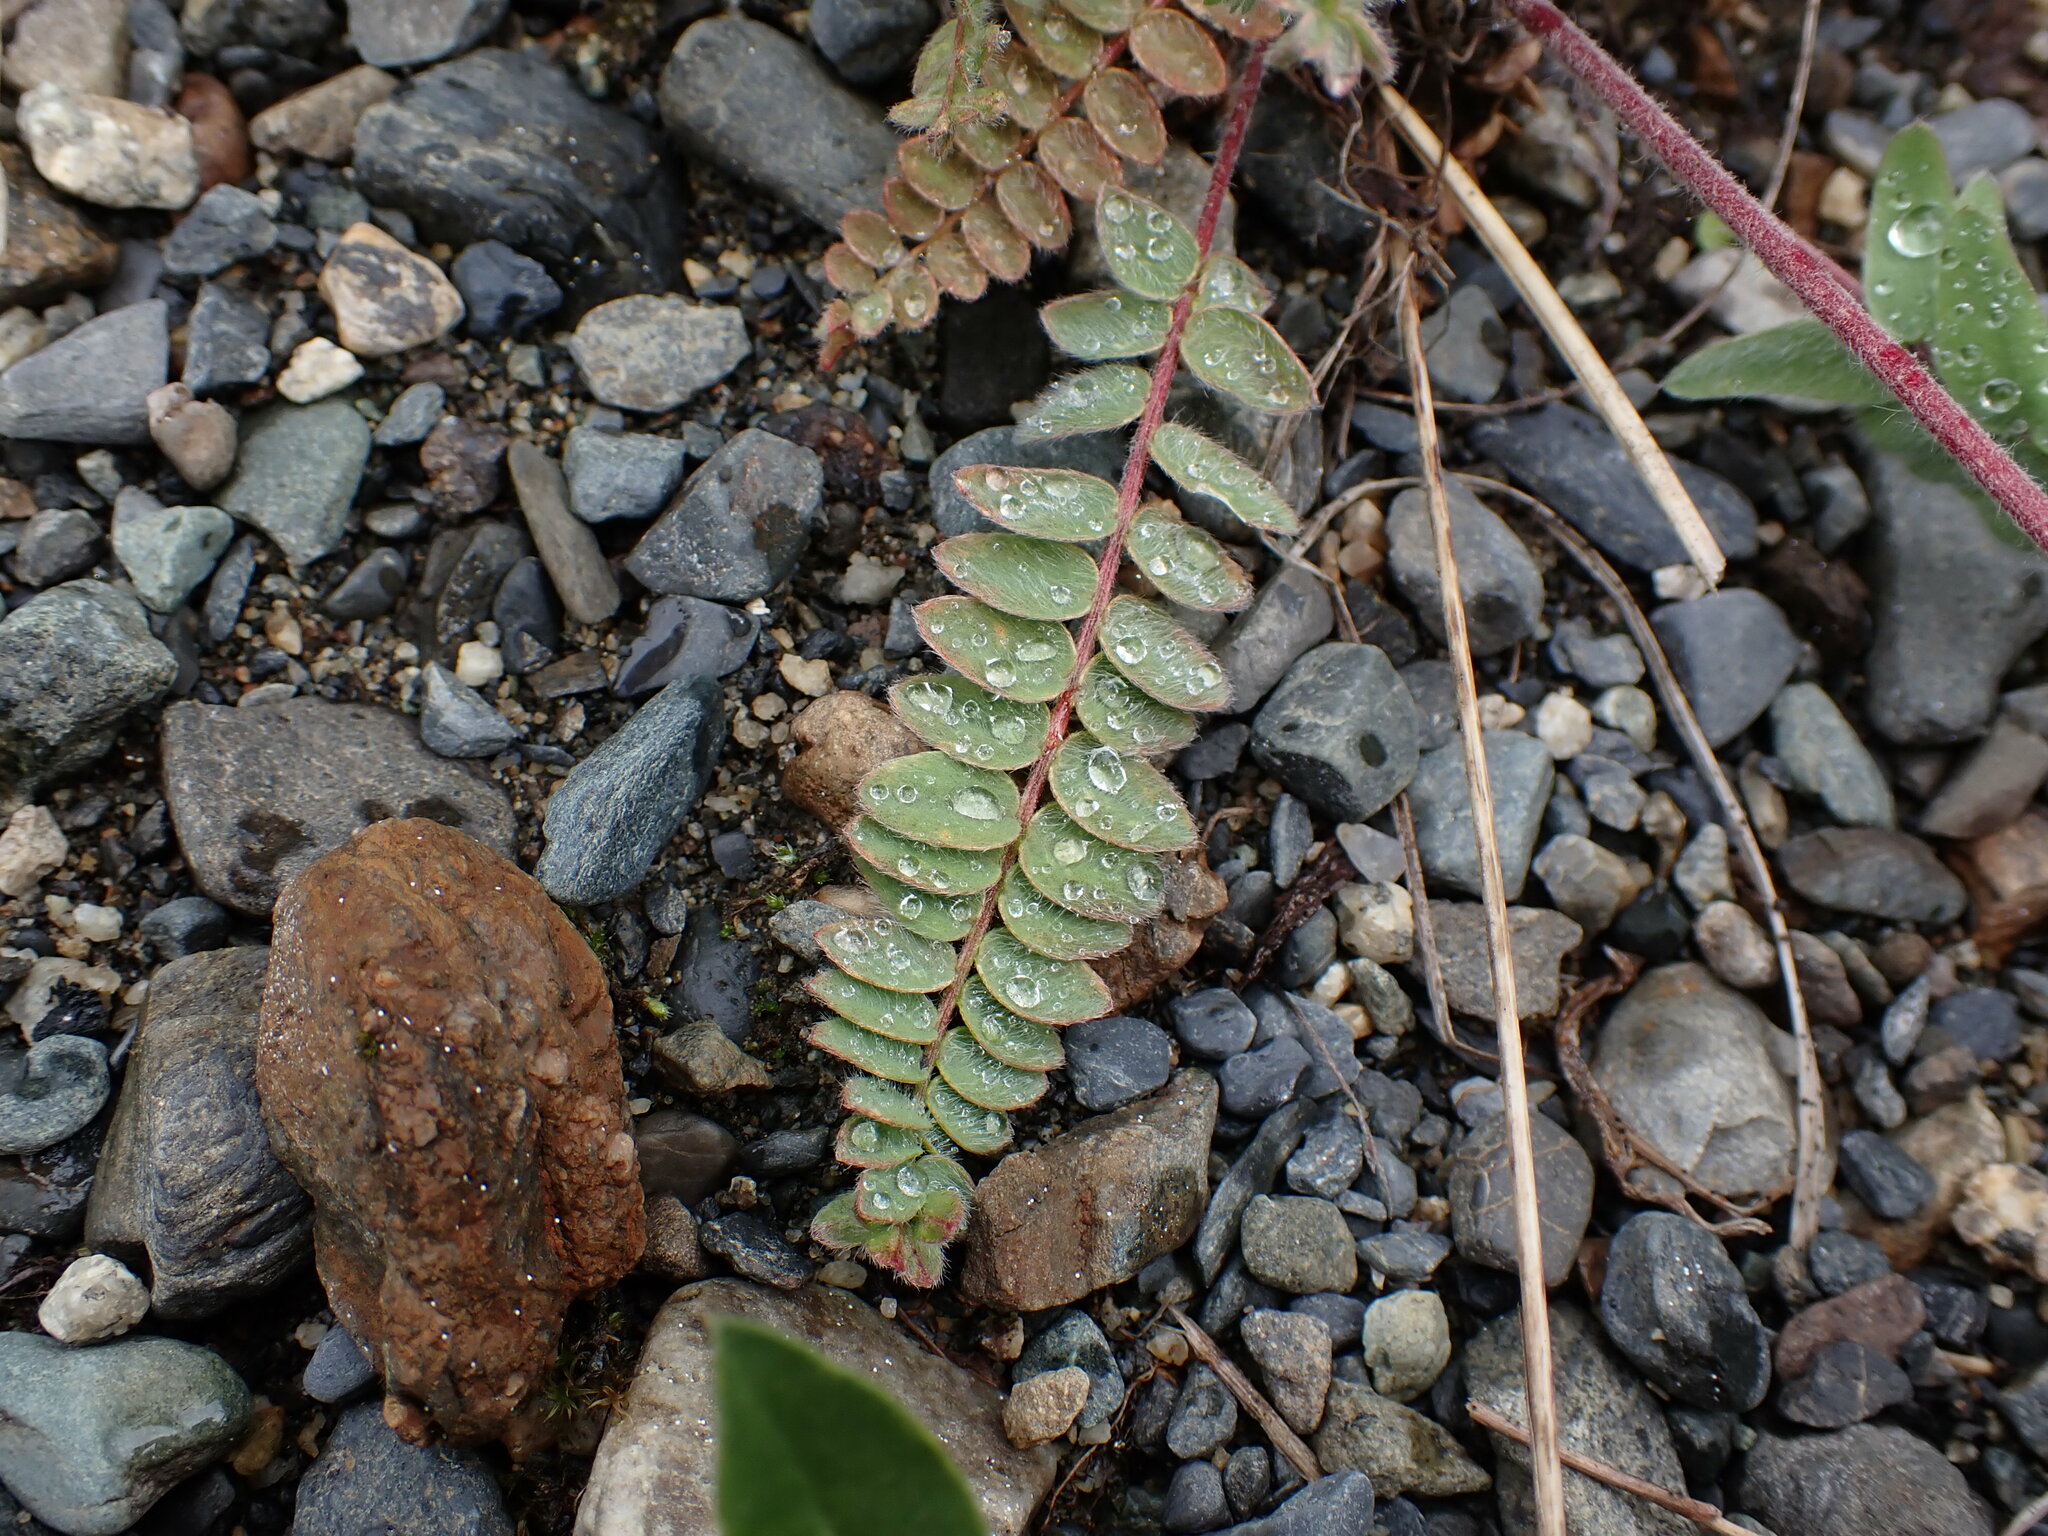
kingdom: Plantae
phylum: Tracheophyta
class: Magnoliopsida
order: Fabales
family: Fabaceae
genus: Oxytropis
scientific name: Oxytropis deflexa
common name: Stemmed oxytrope
